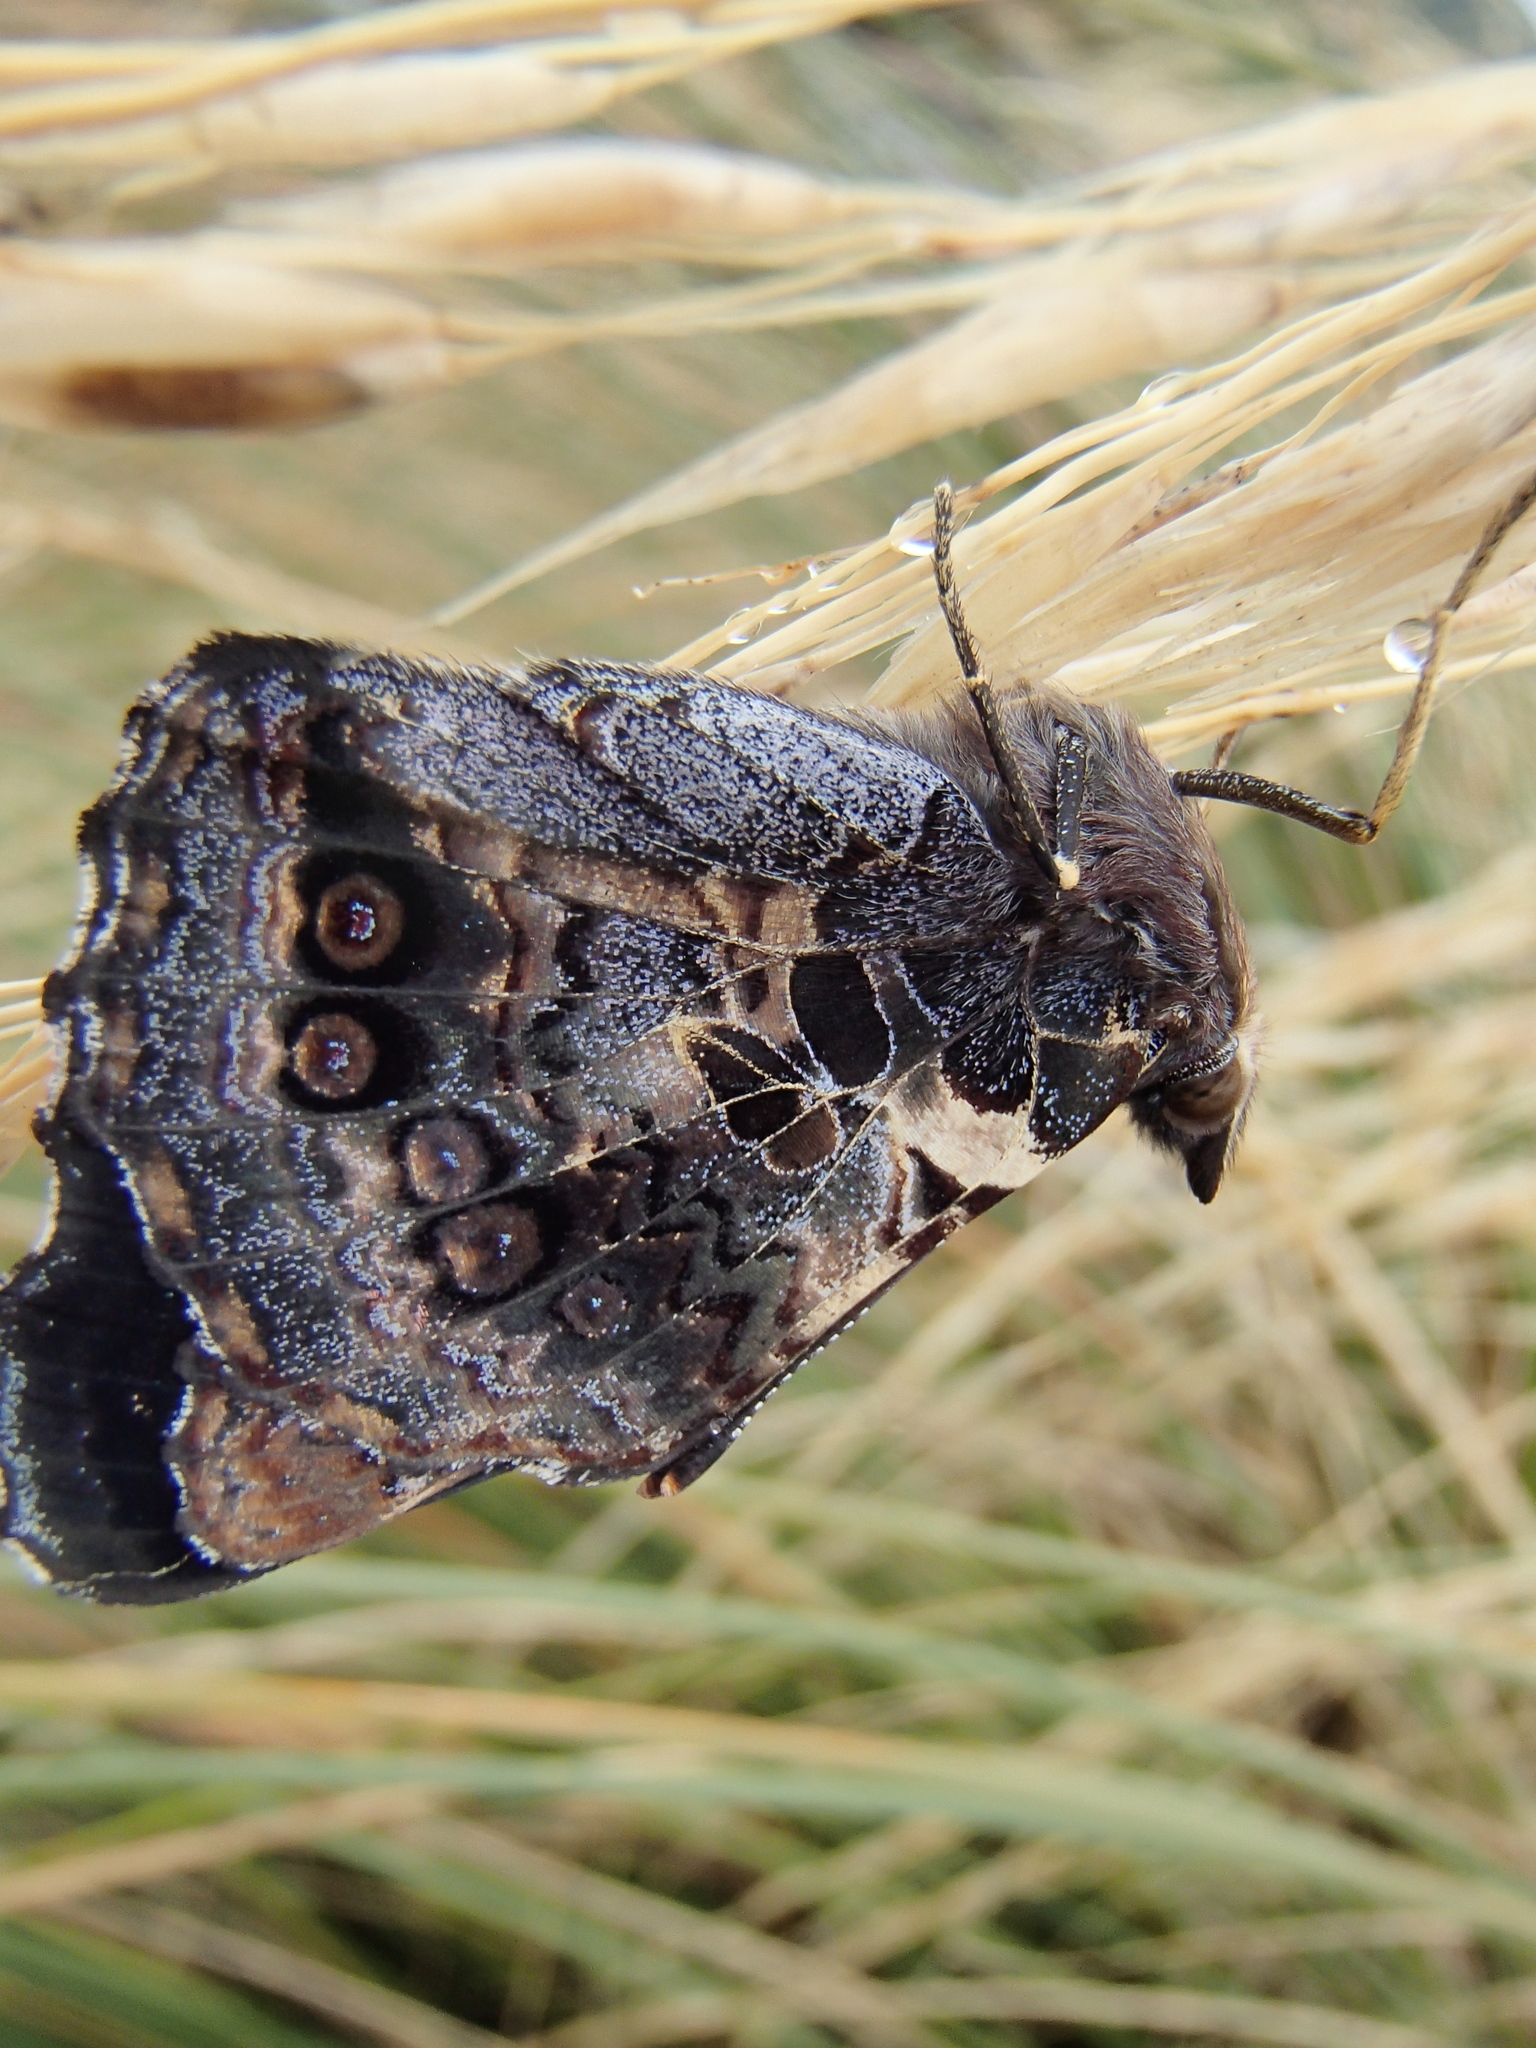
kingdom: Animalia
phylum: Arthropoda
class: Insecta
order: Lepidoptera
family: Nymphalidae
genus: Vanessa
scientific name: Vanessa gonerilla
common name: New zealand red admiral
